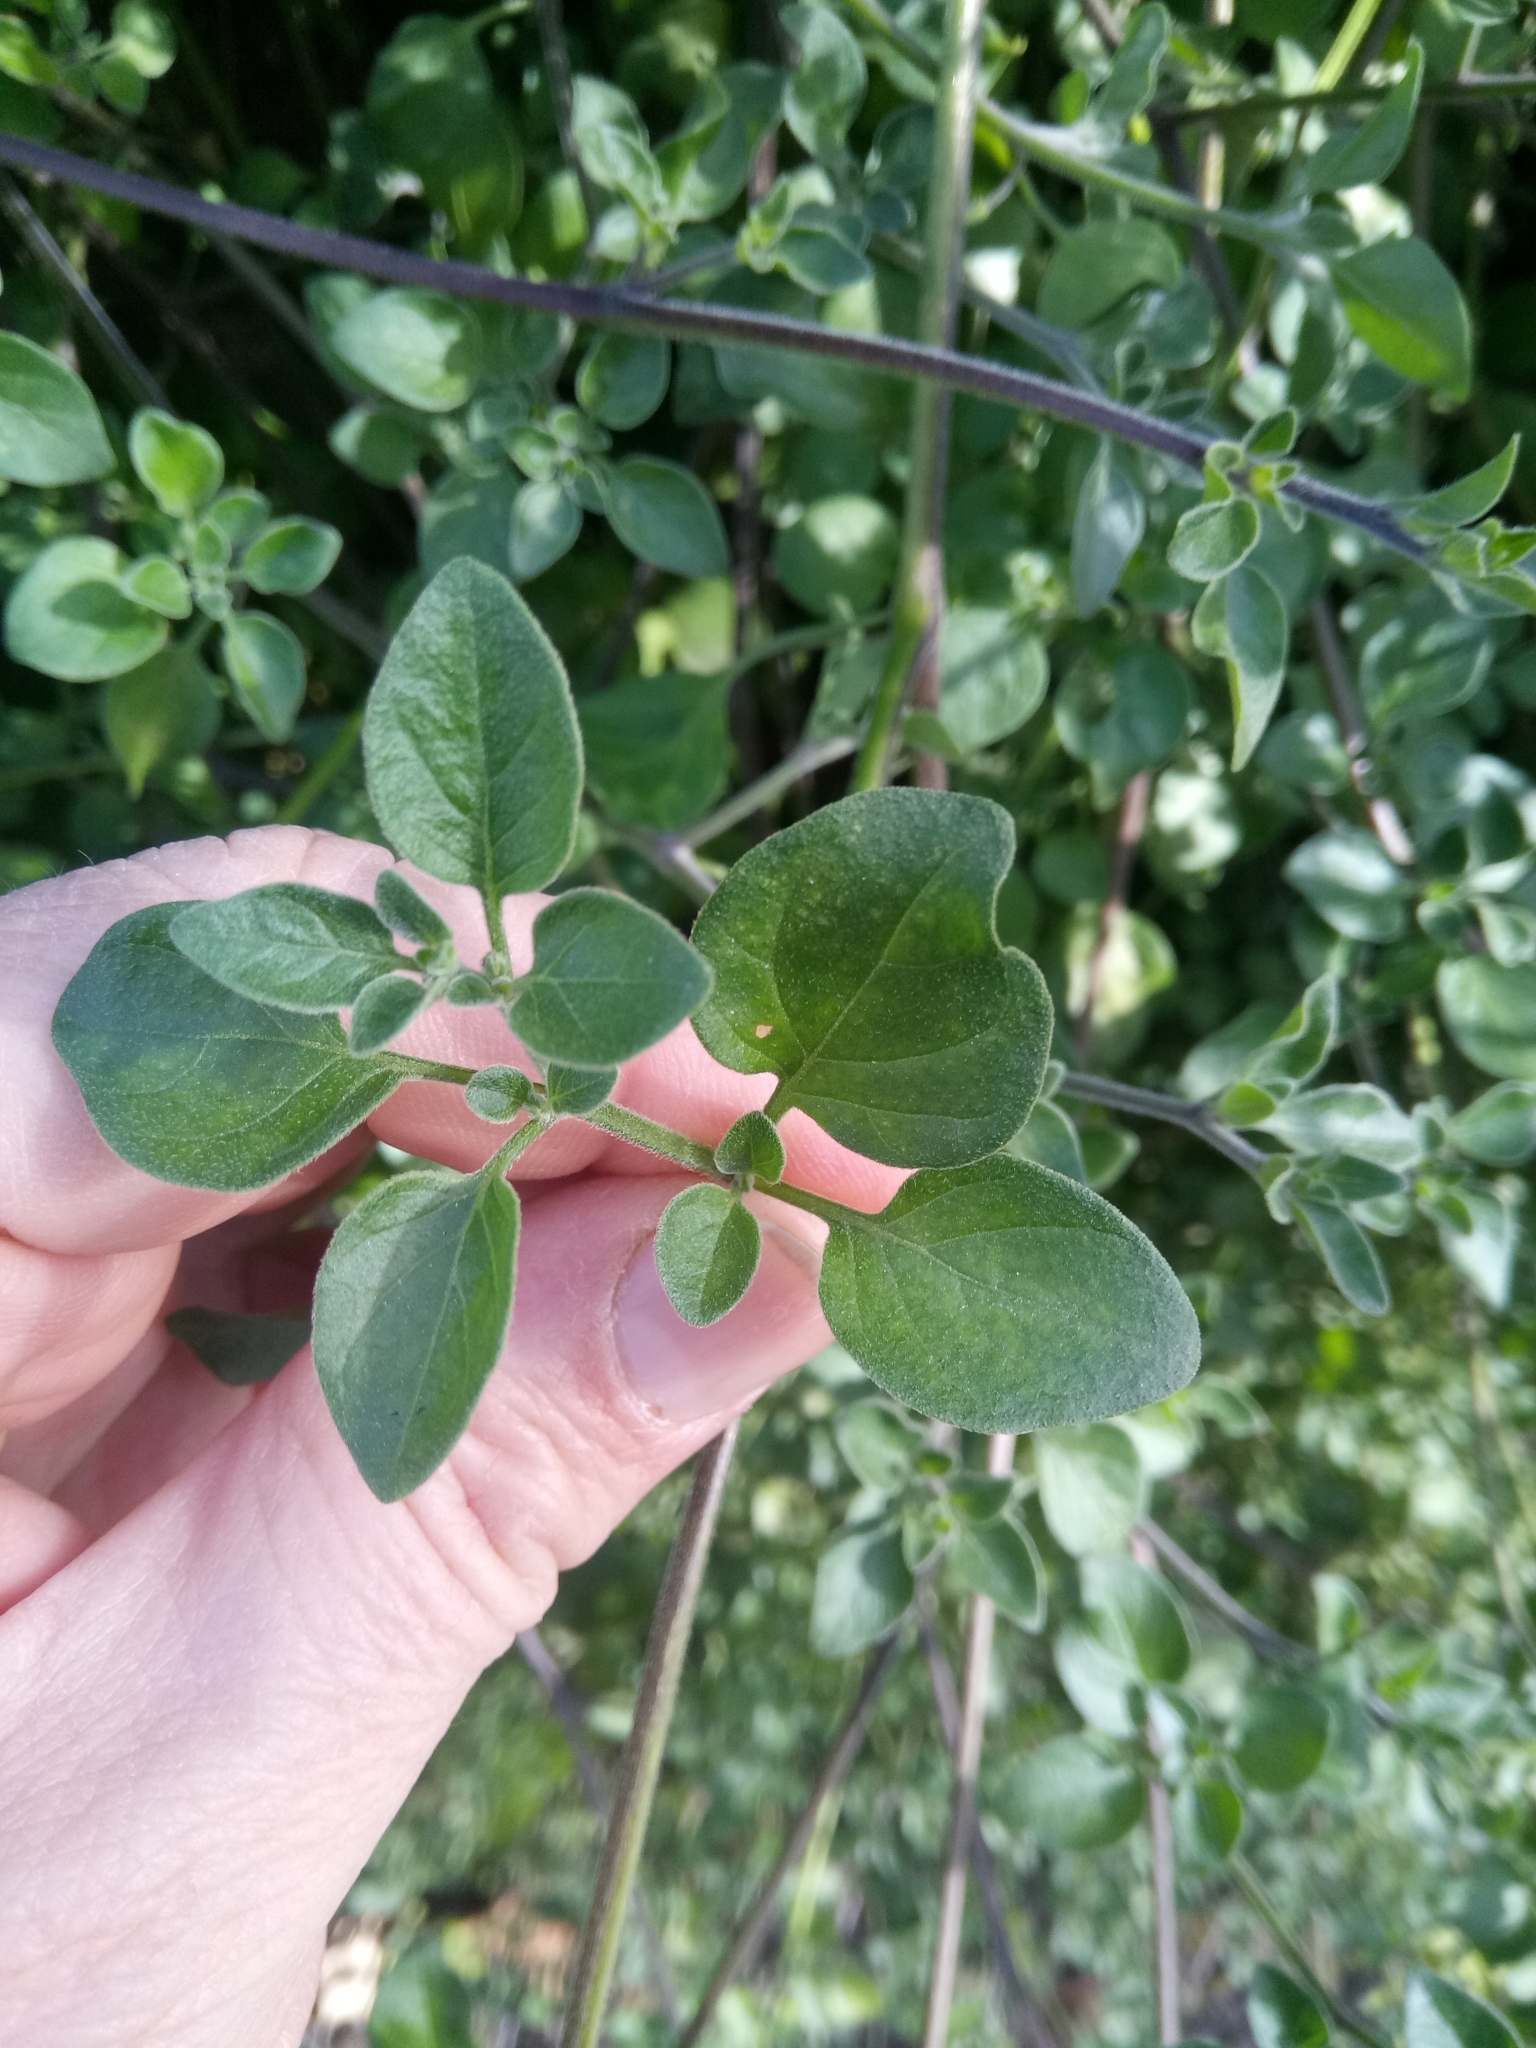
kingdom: Plantae
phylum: Tracheophyta
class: Magnoliopsida
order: Solanales
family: Solanaceae
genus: Salpichroa
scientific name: Salpichroa origanifolia
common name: Lily-of-the-valley-vine
